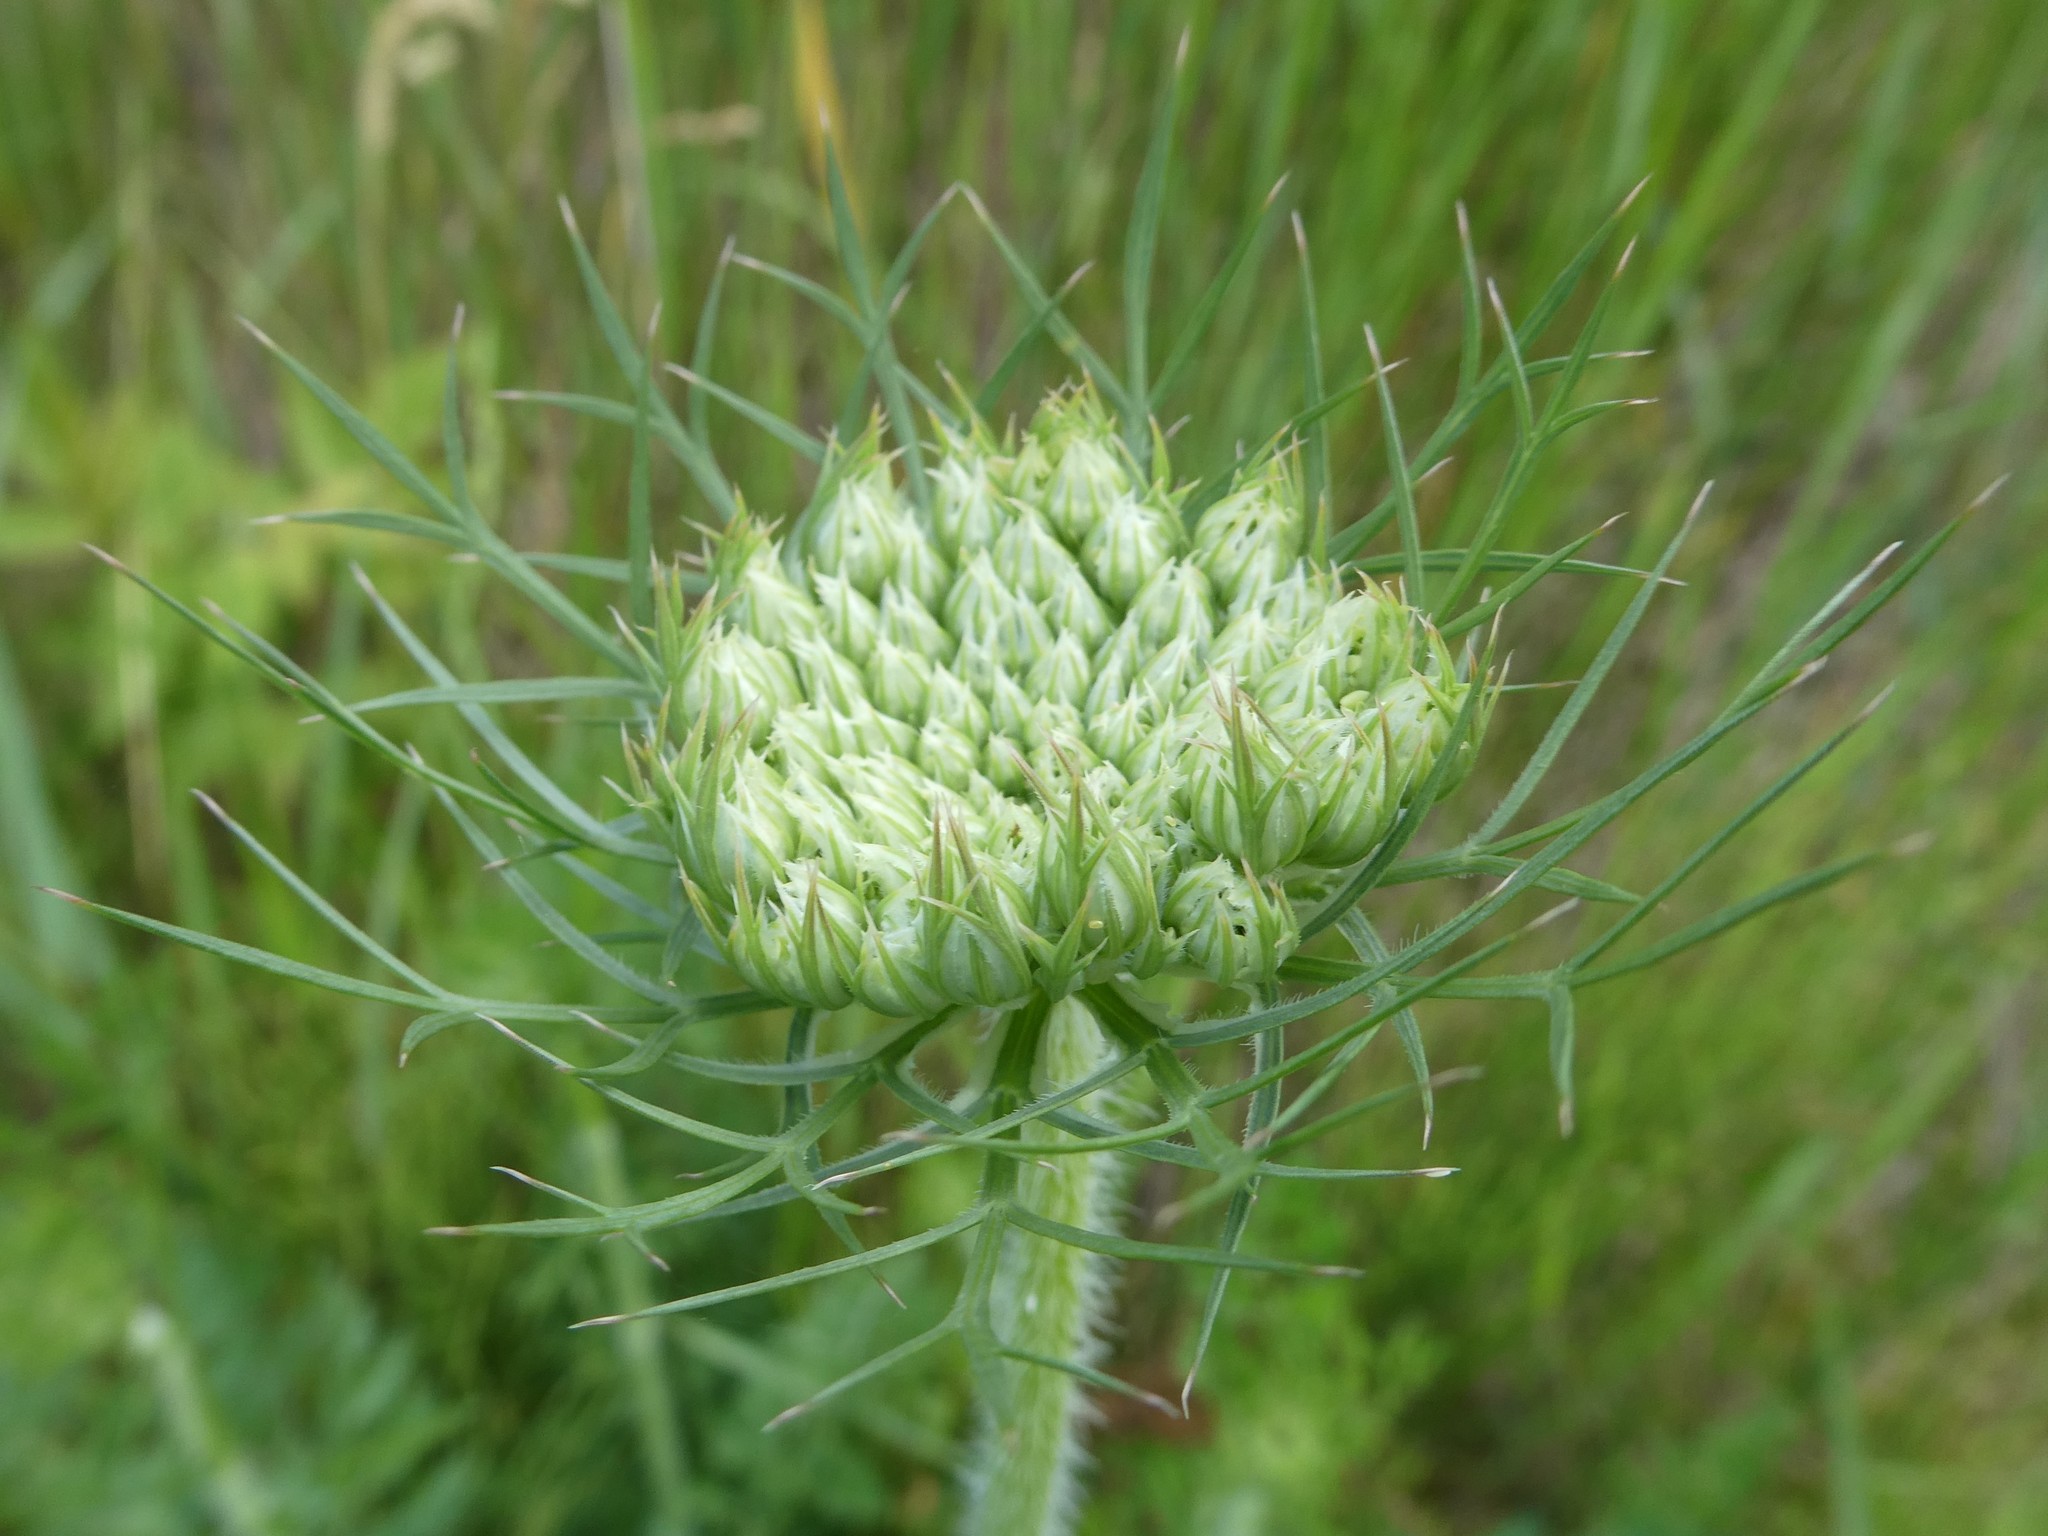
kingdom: Plantae
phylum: Tracheophyta
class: Magnoliopsida
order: Apiales
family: Apiaceae
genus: Daucus
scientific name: Daucus carota
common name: Wild carrot
